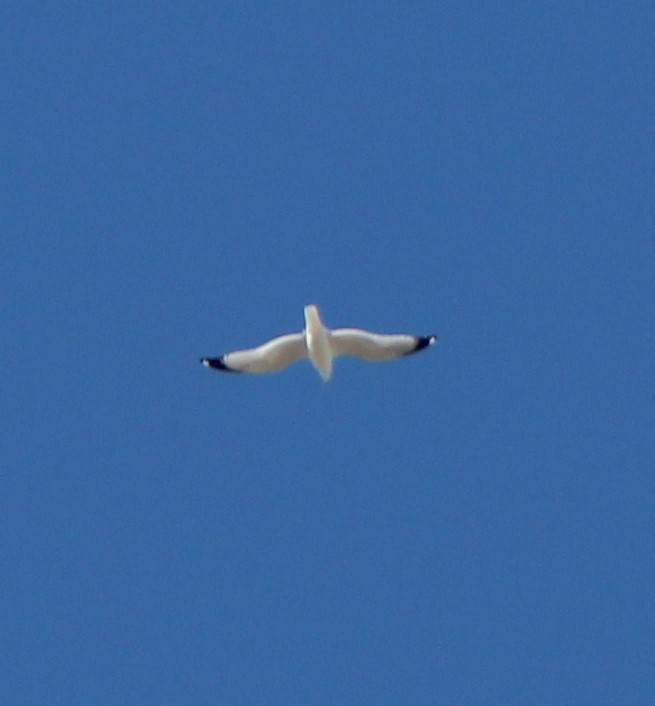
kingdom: Animalia
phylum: Chordata
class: Aves
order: Charadriiformes
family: Laridae
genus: Larus
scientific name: Larus delawarensis
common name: Ring-billed gull
